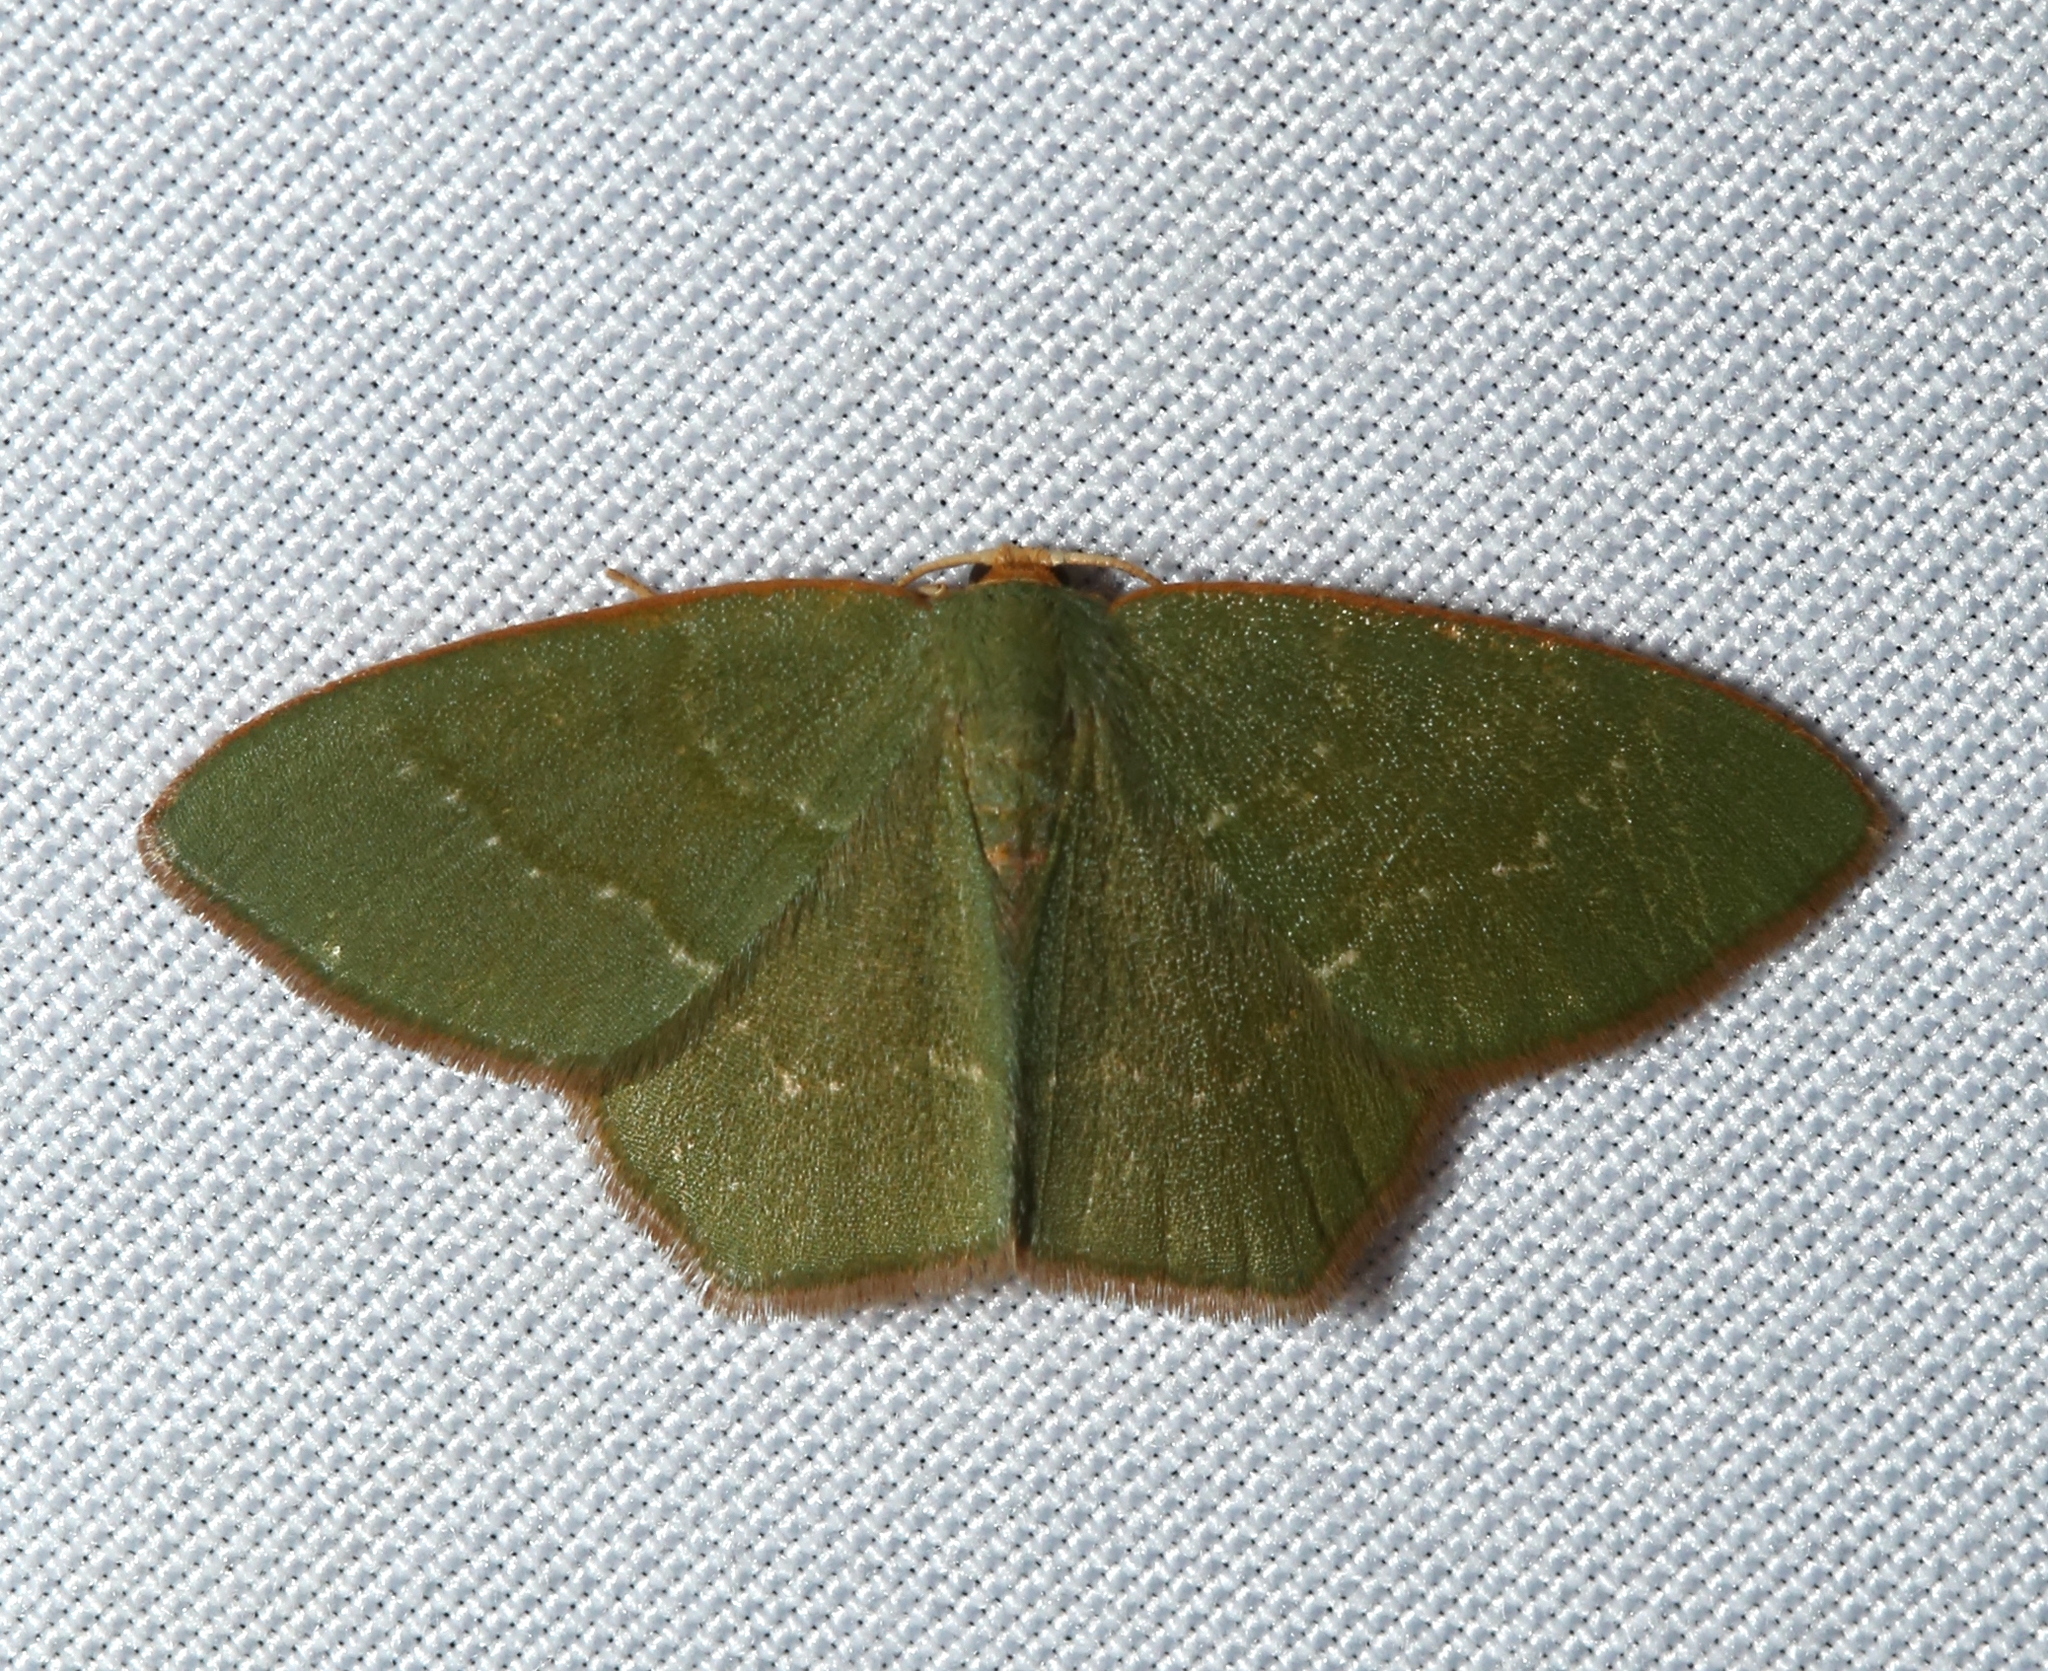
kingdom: Animalia
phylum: Arthropoda
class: Insecta
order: Lepidoptera
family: Geometridae
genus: Thalera
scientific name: Thalera pistasciaria
